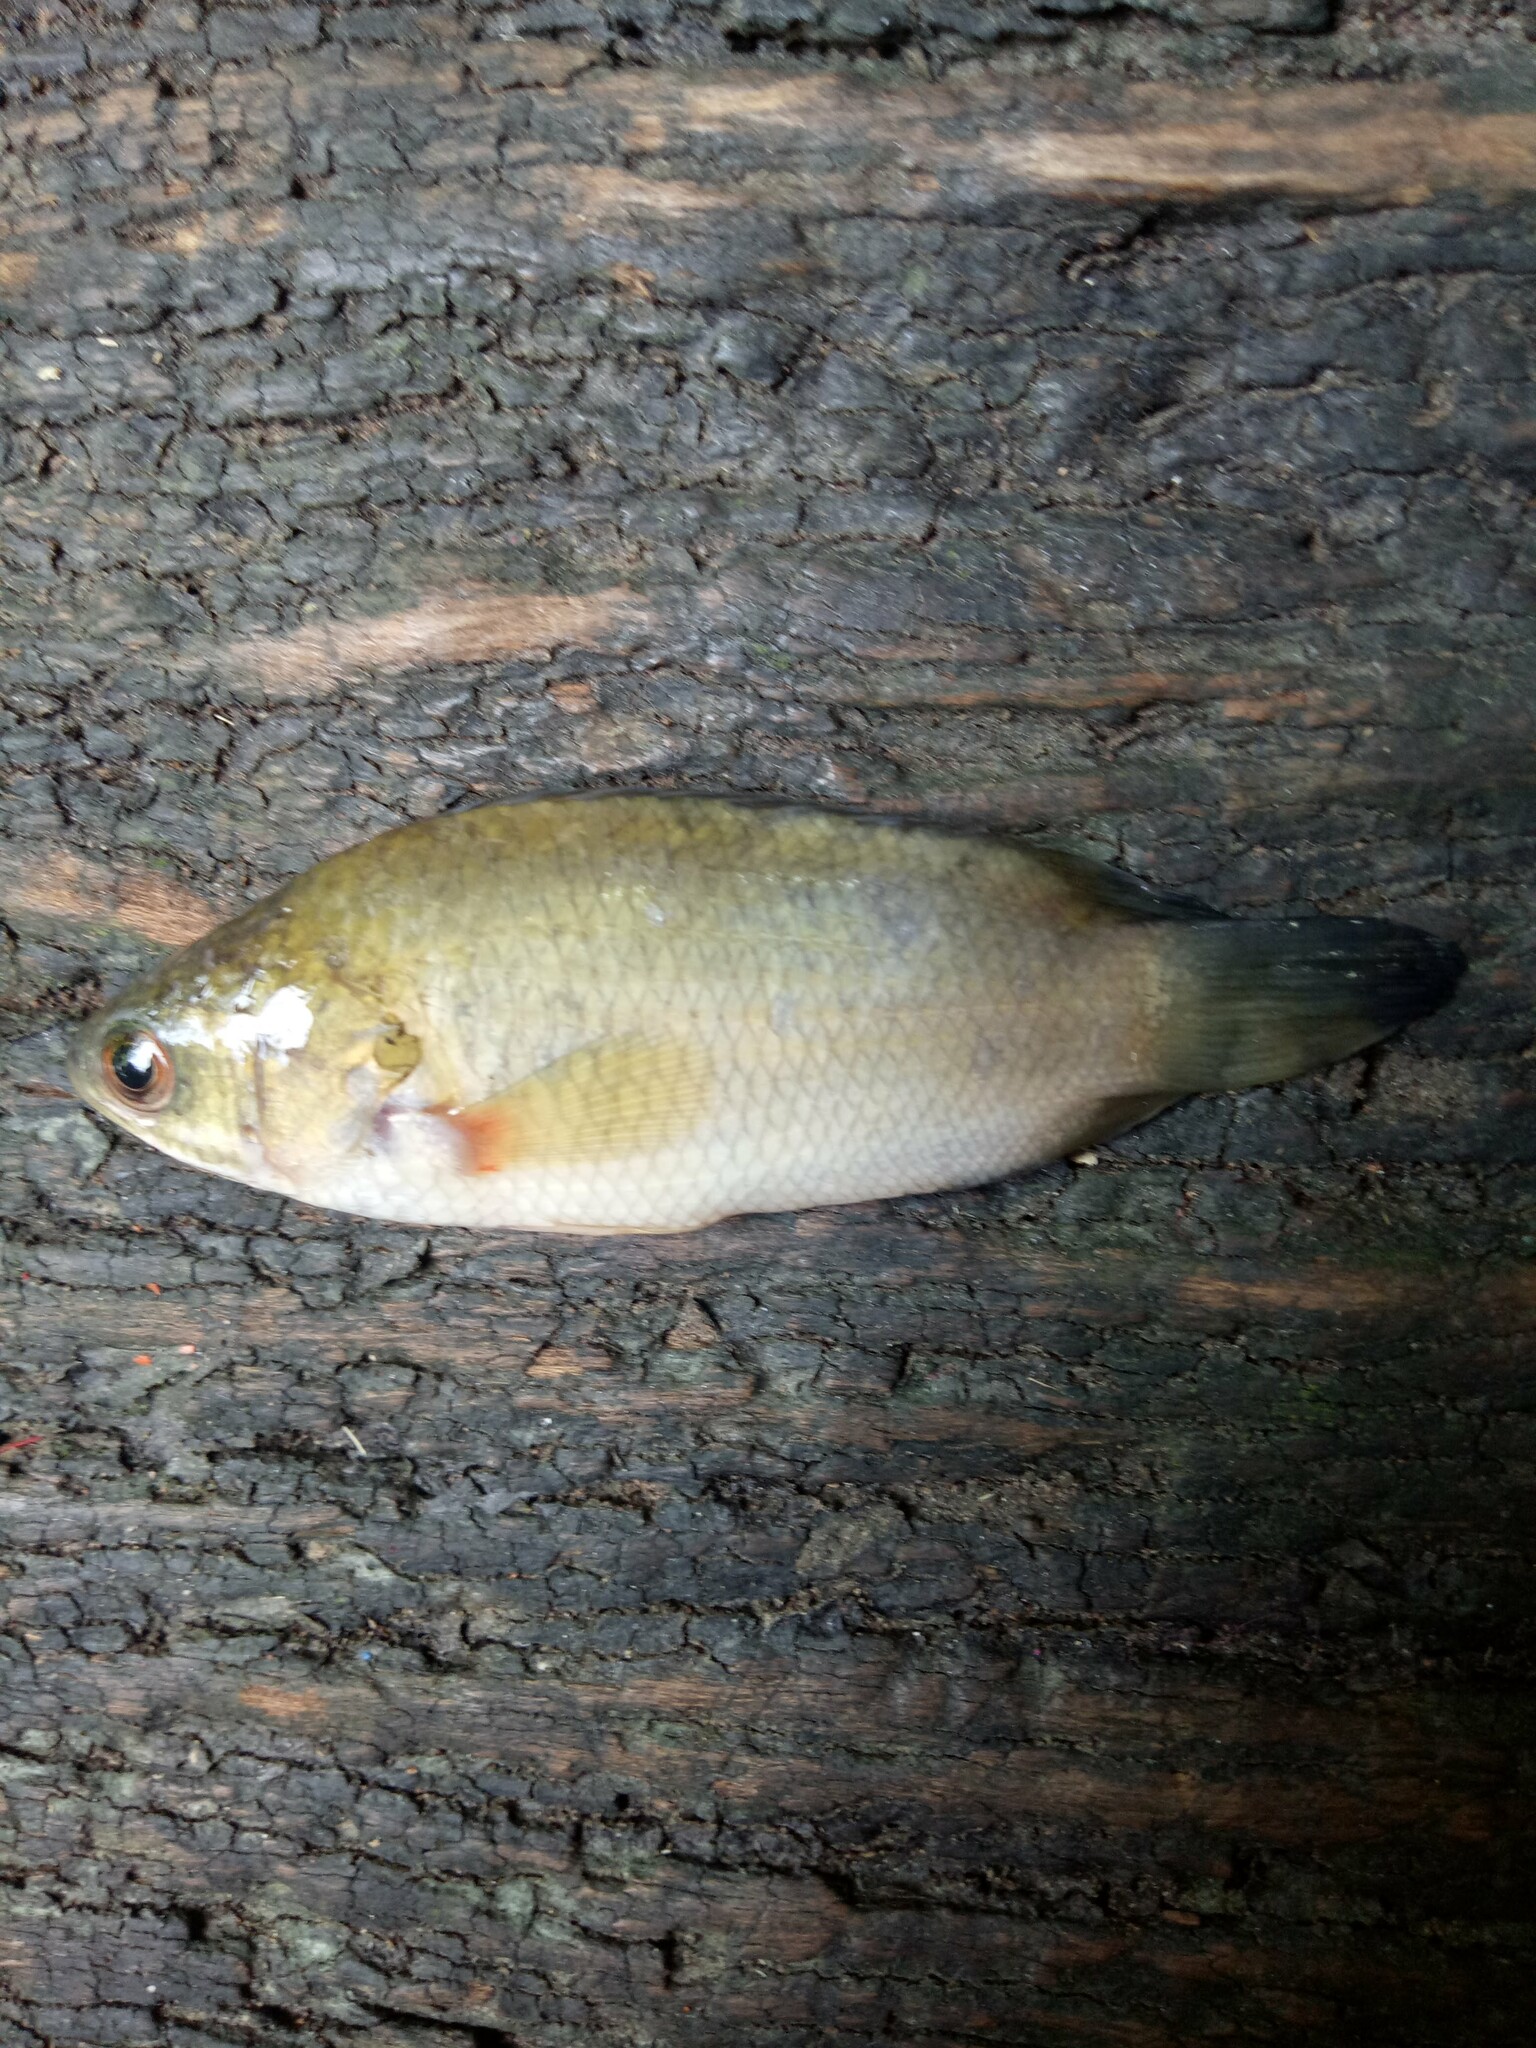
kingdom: Animalia
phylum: Chordata
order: Perciformes
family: Anabantidae
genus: Anabas
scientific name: Anabas testudineus
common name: Climbing perch
